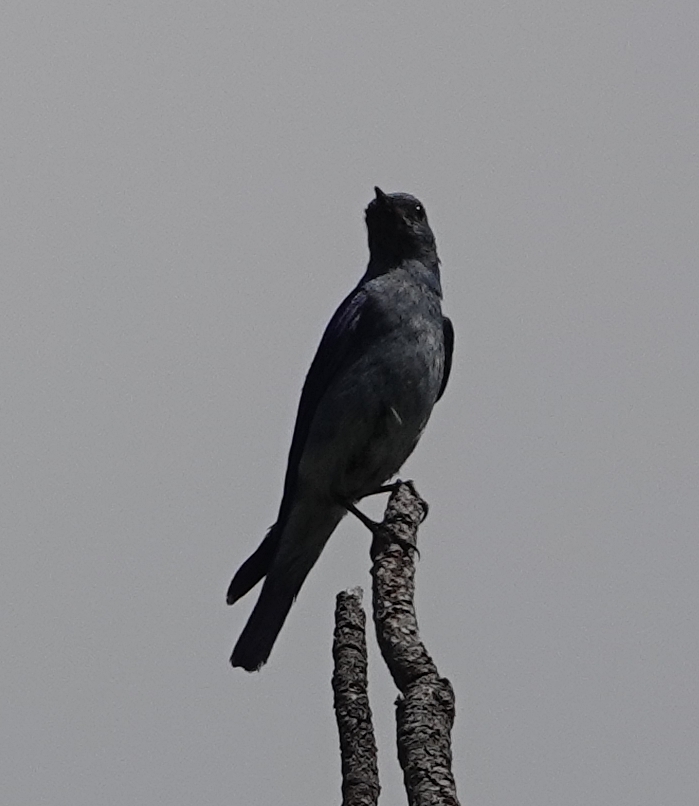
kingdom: Animalia
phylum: Chordata
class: Aves
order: Passeriformes
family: Turdidae
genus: Sialia
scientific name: Sialia currucoides
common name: Mountain bluebird
